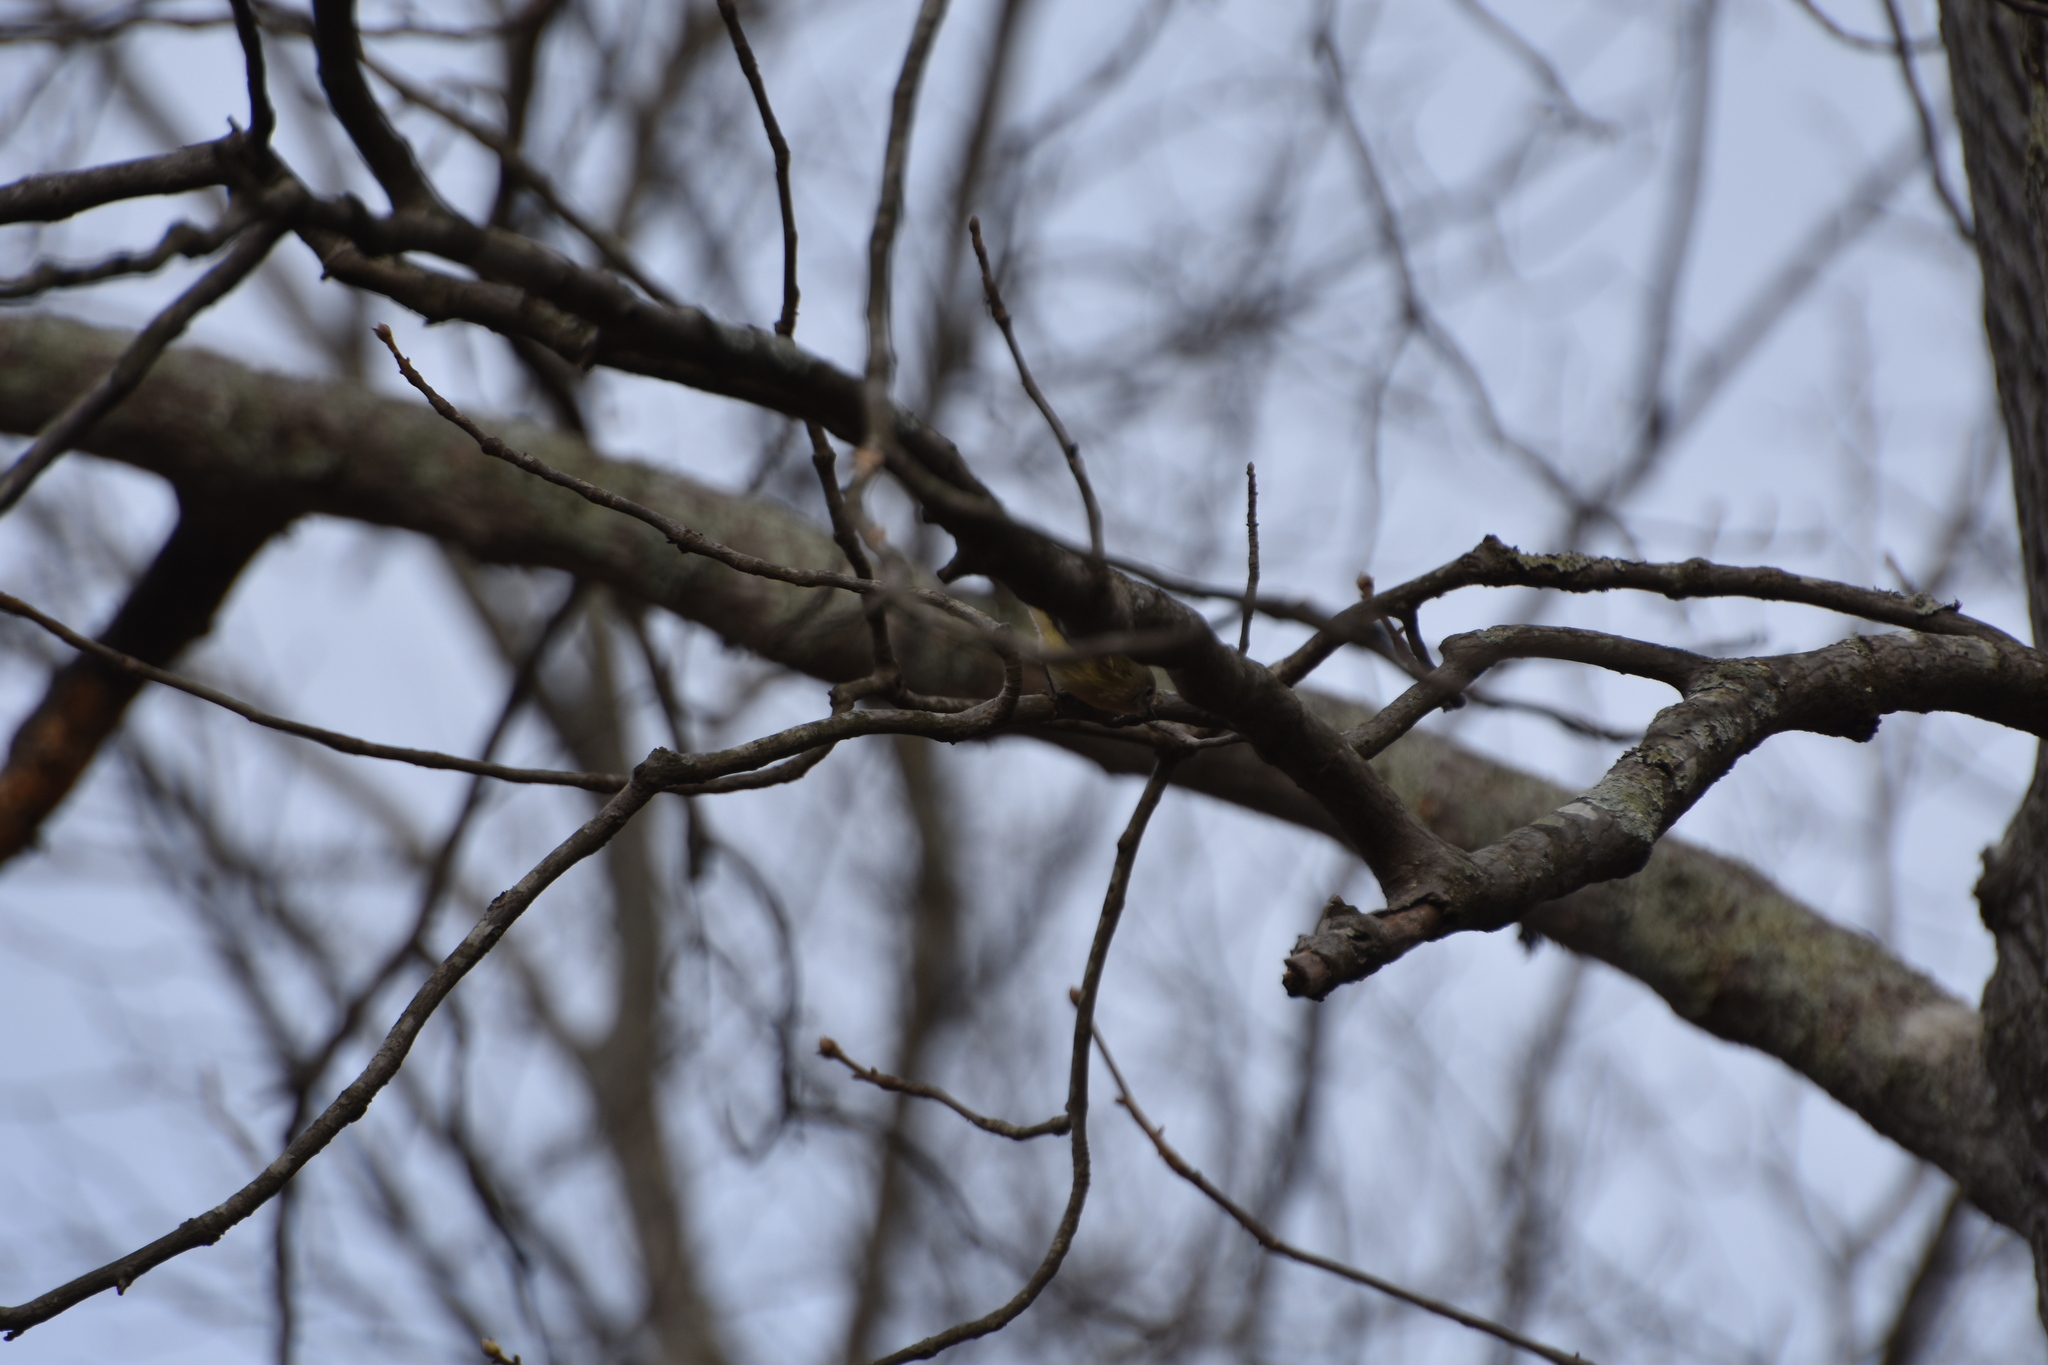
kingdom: Animalia
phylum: Chordata
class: Aves
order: Passeriformes
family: Regulidae
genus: Regulus
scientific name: Regulus calendula
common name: Ruby-crowned kinglet
